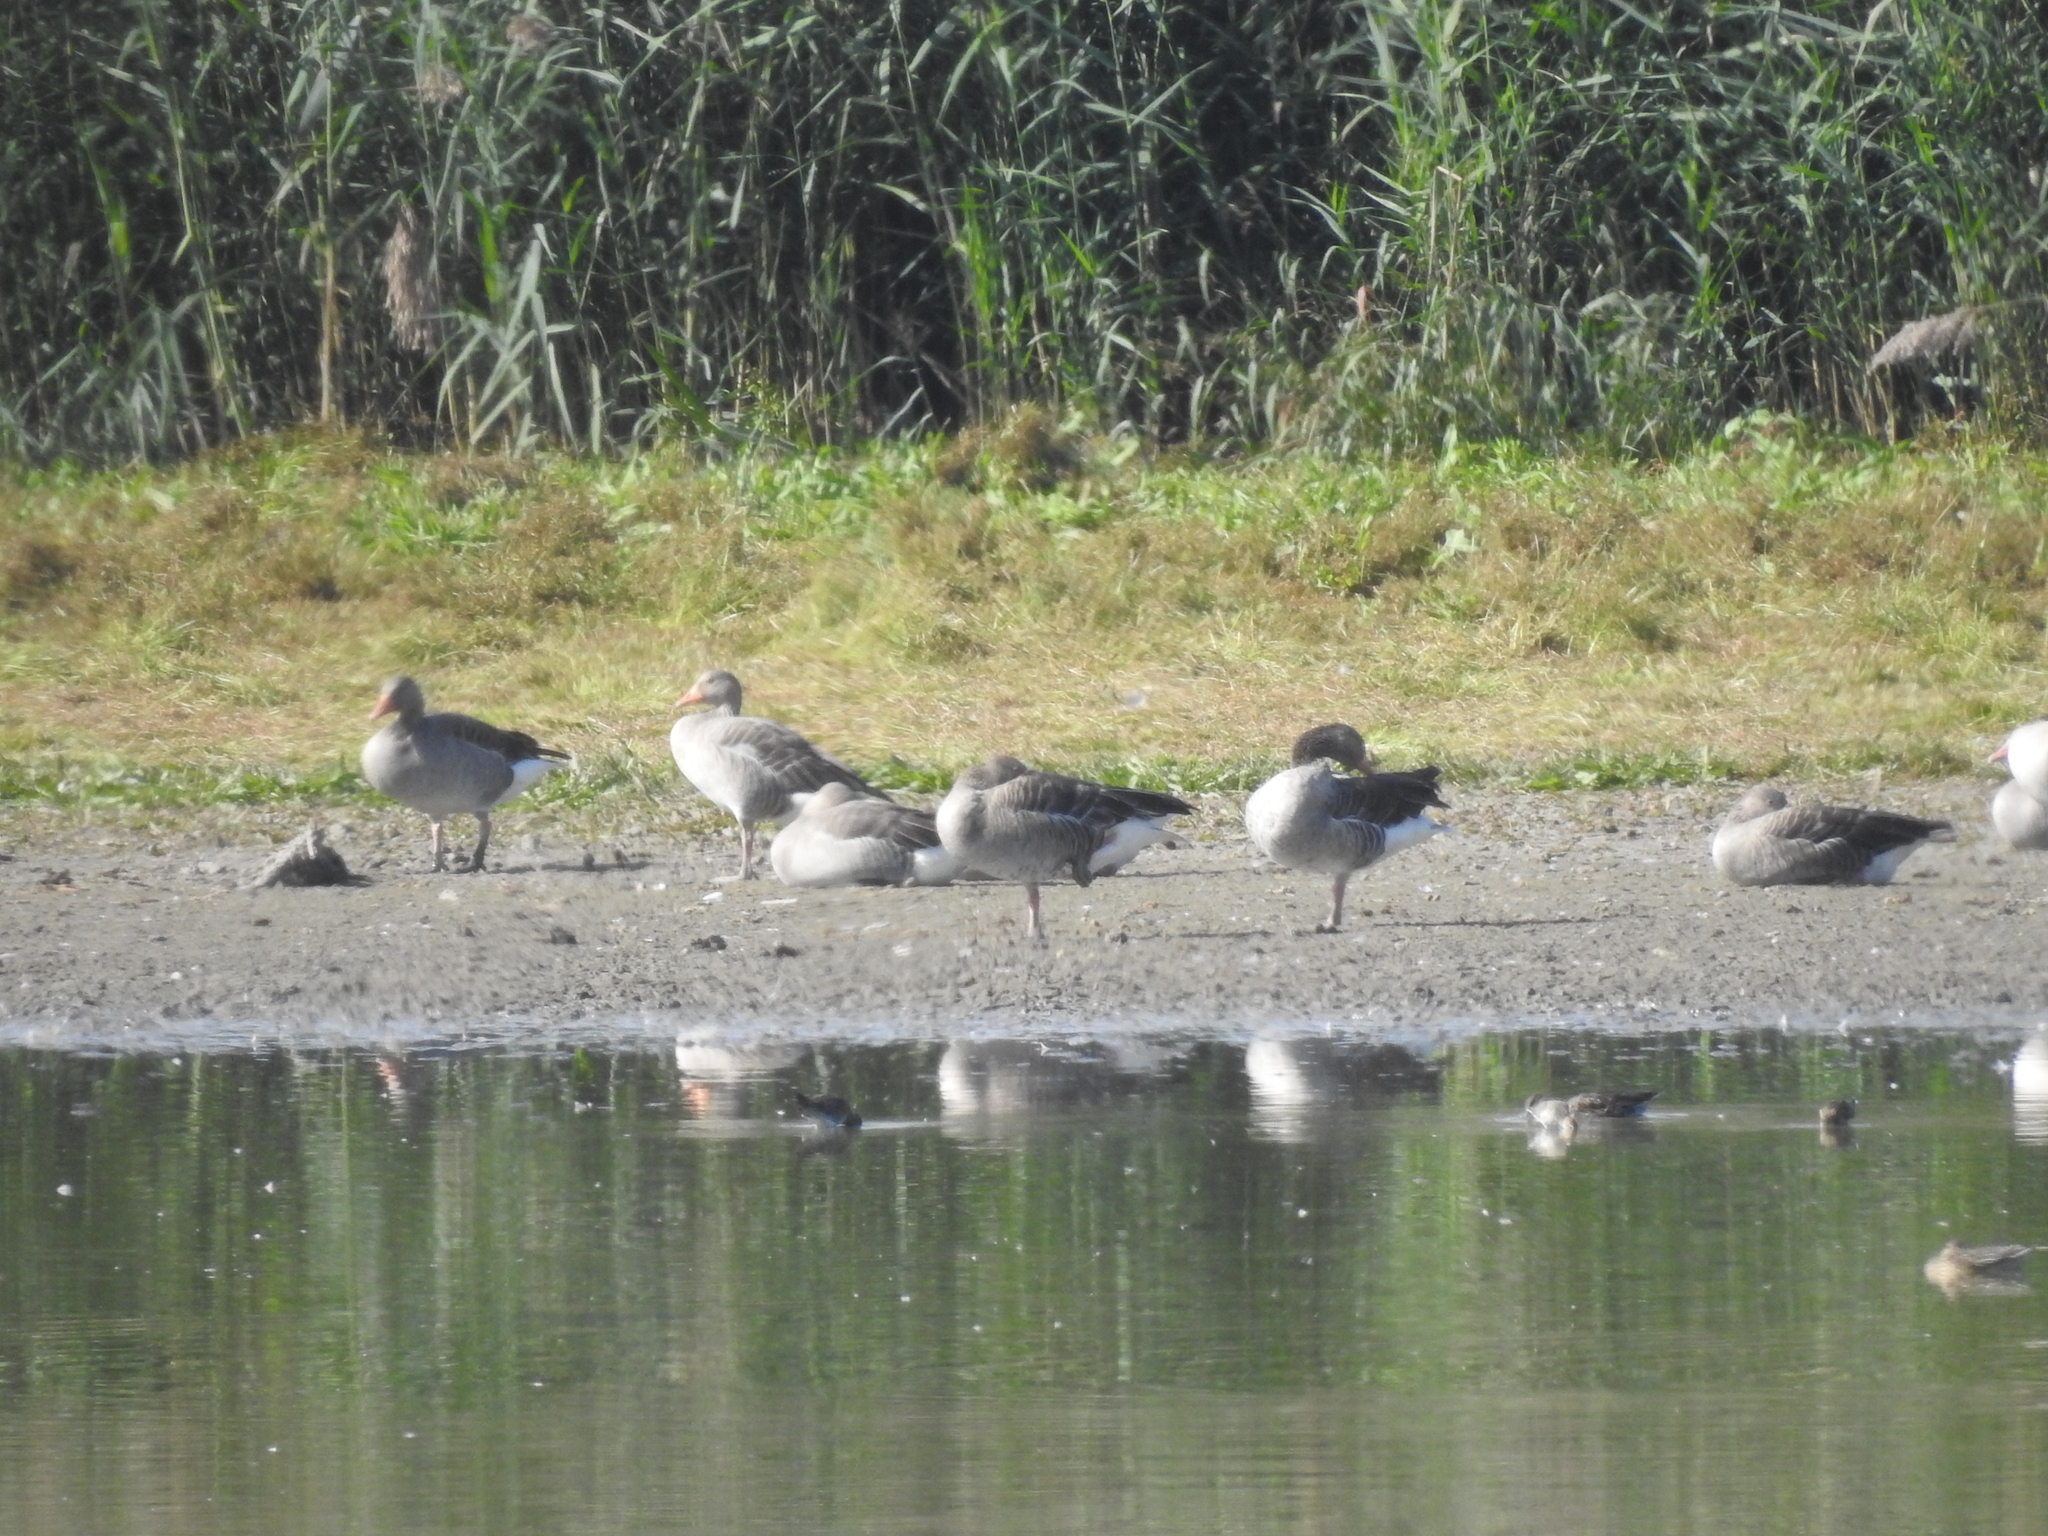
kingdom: Animalia
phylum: Chordata
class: Aves
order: Anseriformes
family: Anatidae
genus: Anser
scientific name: Anser anser
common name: Greylag goose
